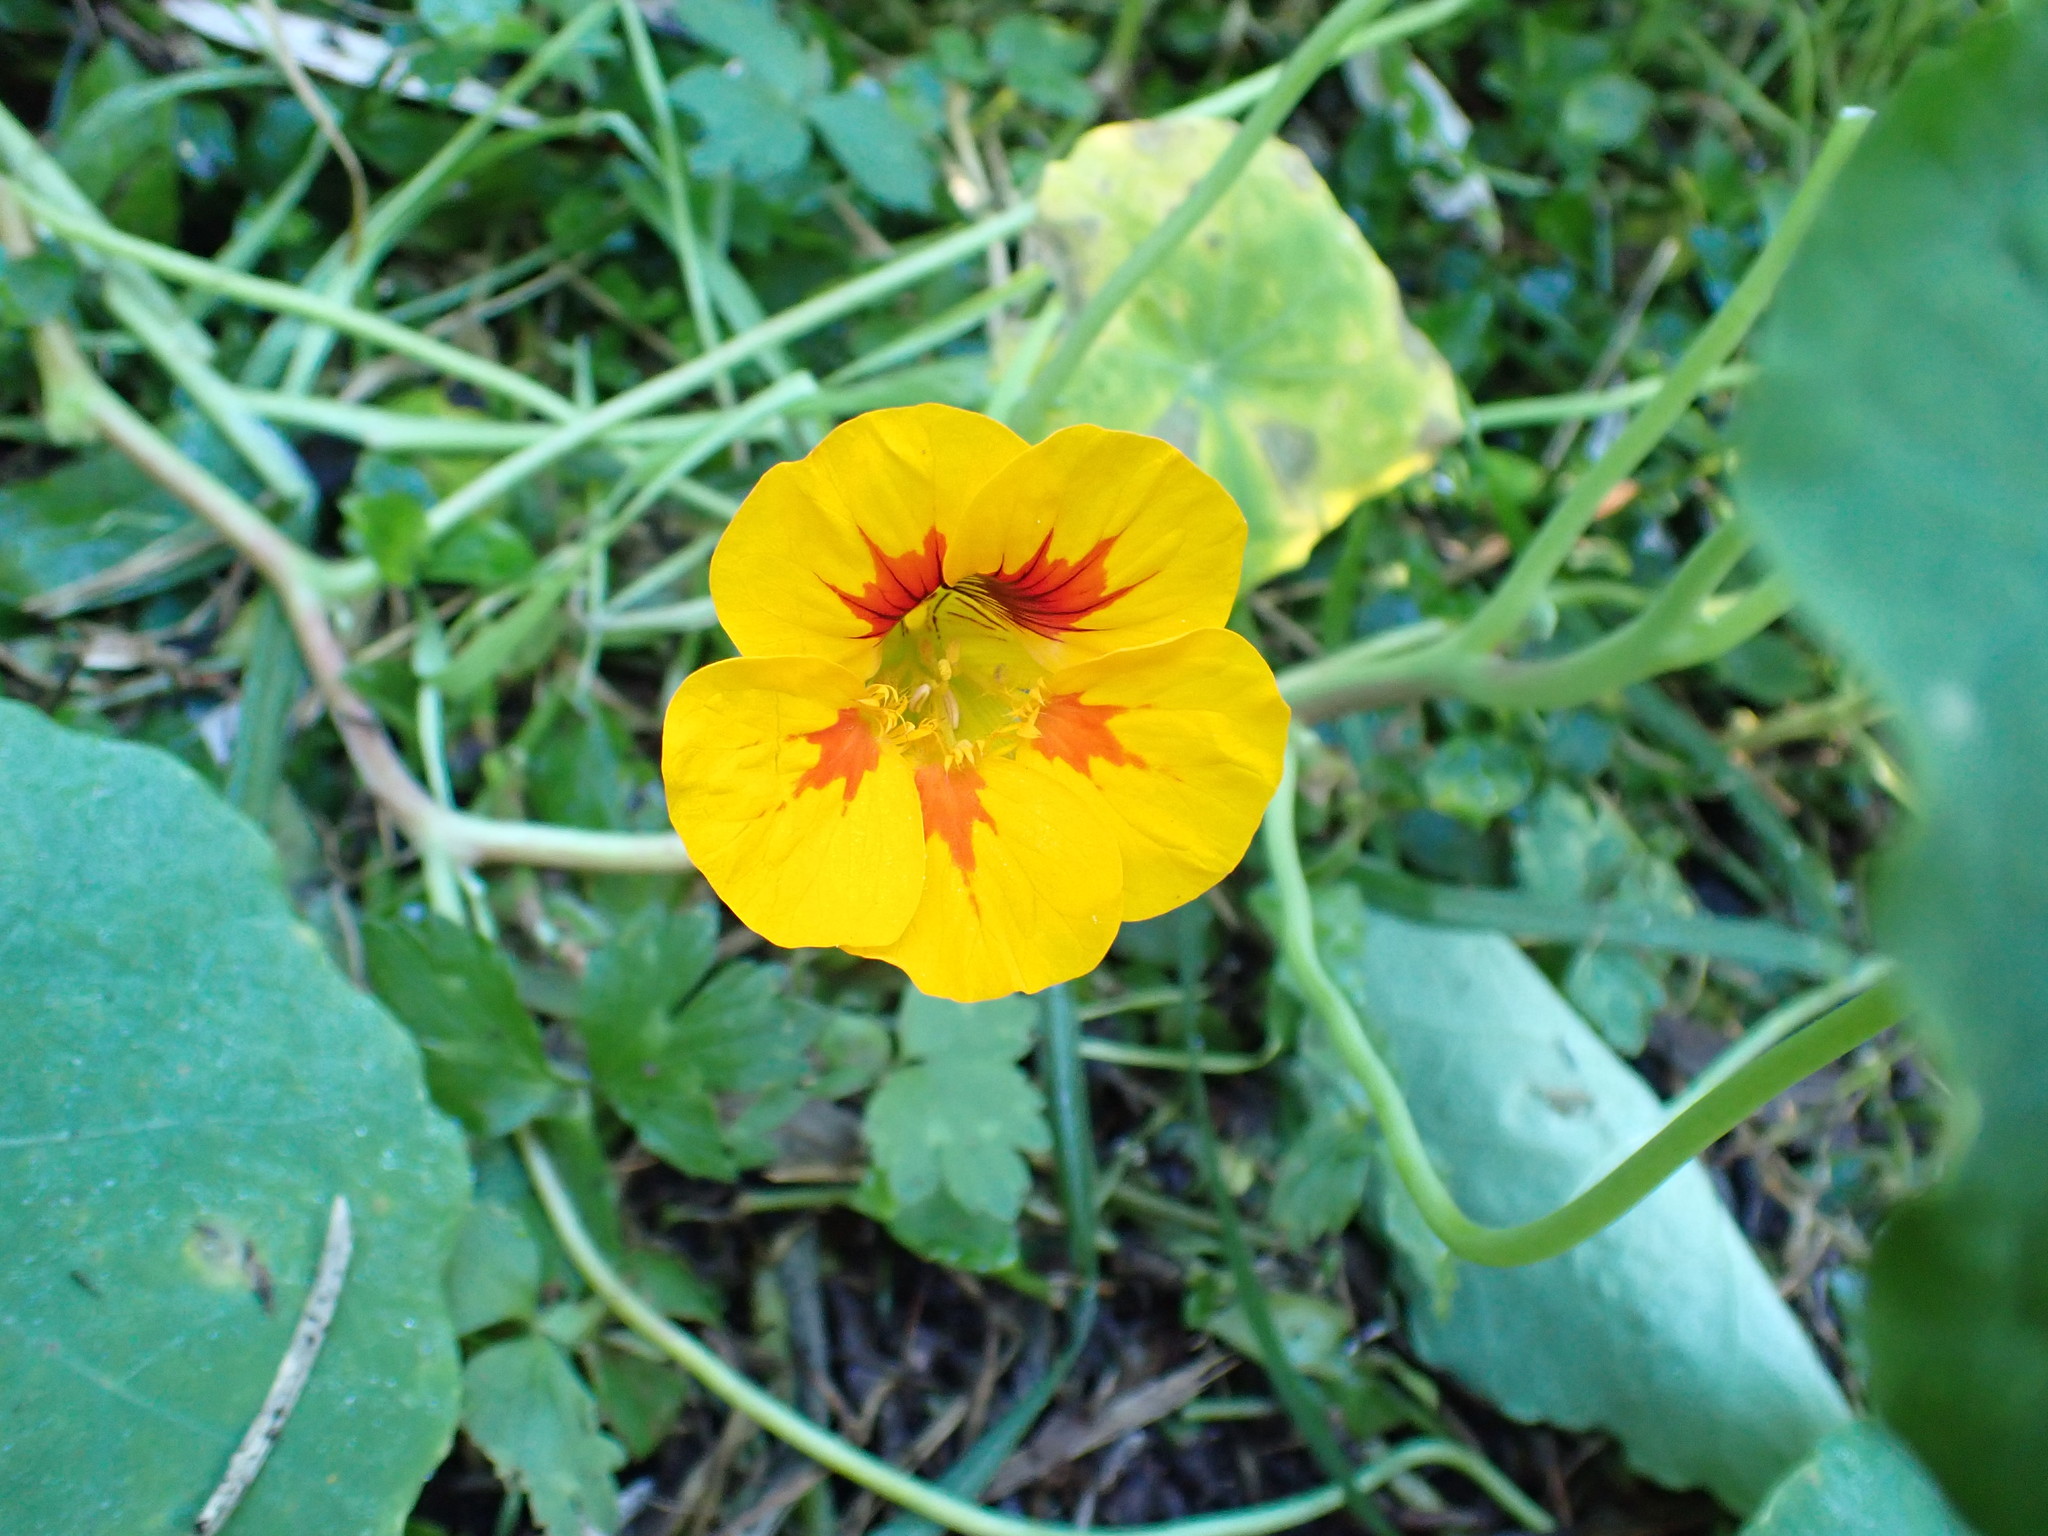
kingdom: Plantae
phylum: Tracheophyta
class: Magnoliopsida
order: Brassicales
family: Tropaeolaceae
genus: Tropaeolum
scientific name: Tropaeolum majus
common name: Nasturtium
